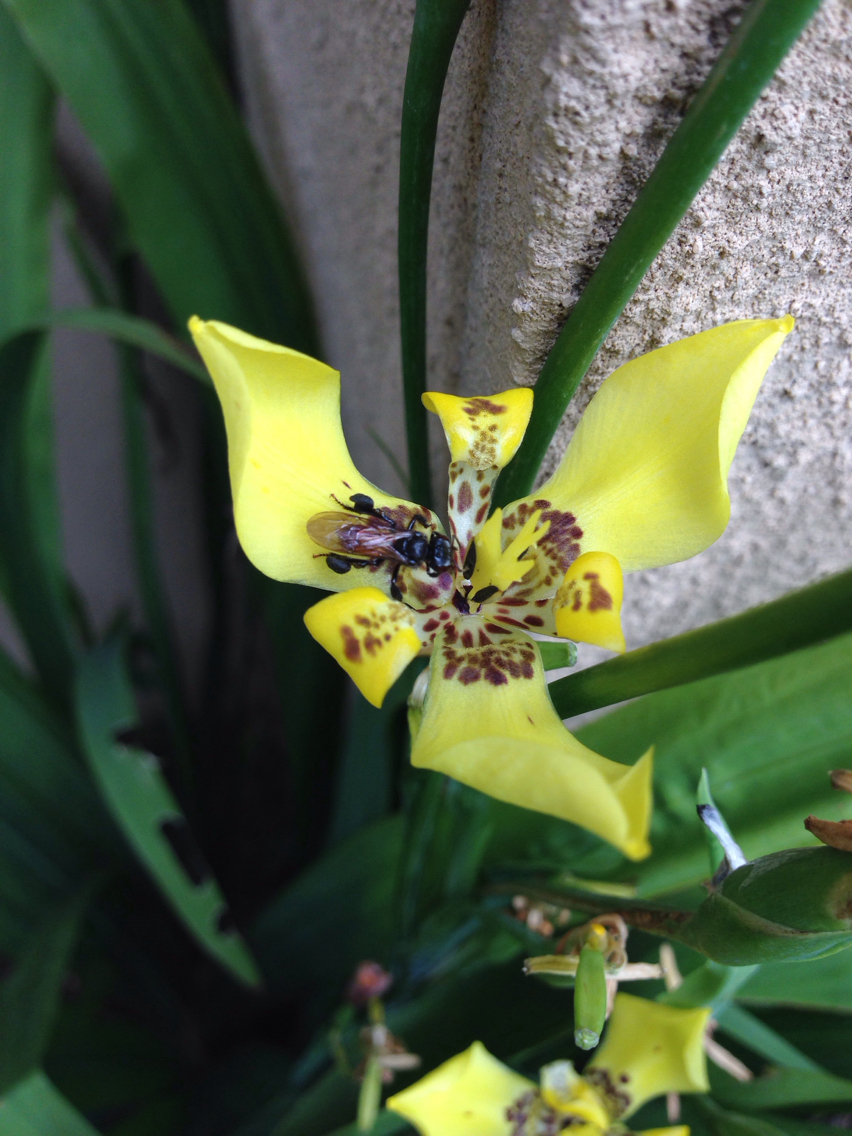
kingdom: Animalia
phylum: Arthropoda
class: Insecta
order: Hymenoptera
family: Apidae
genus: Trigona
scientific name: Trigona fulviventris
